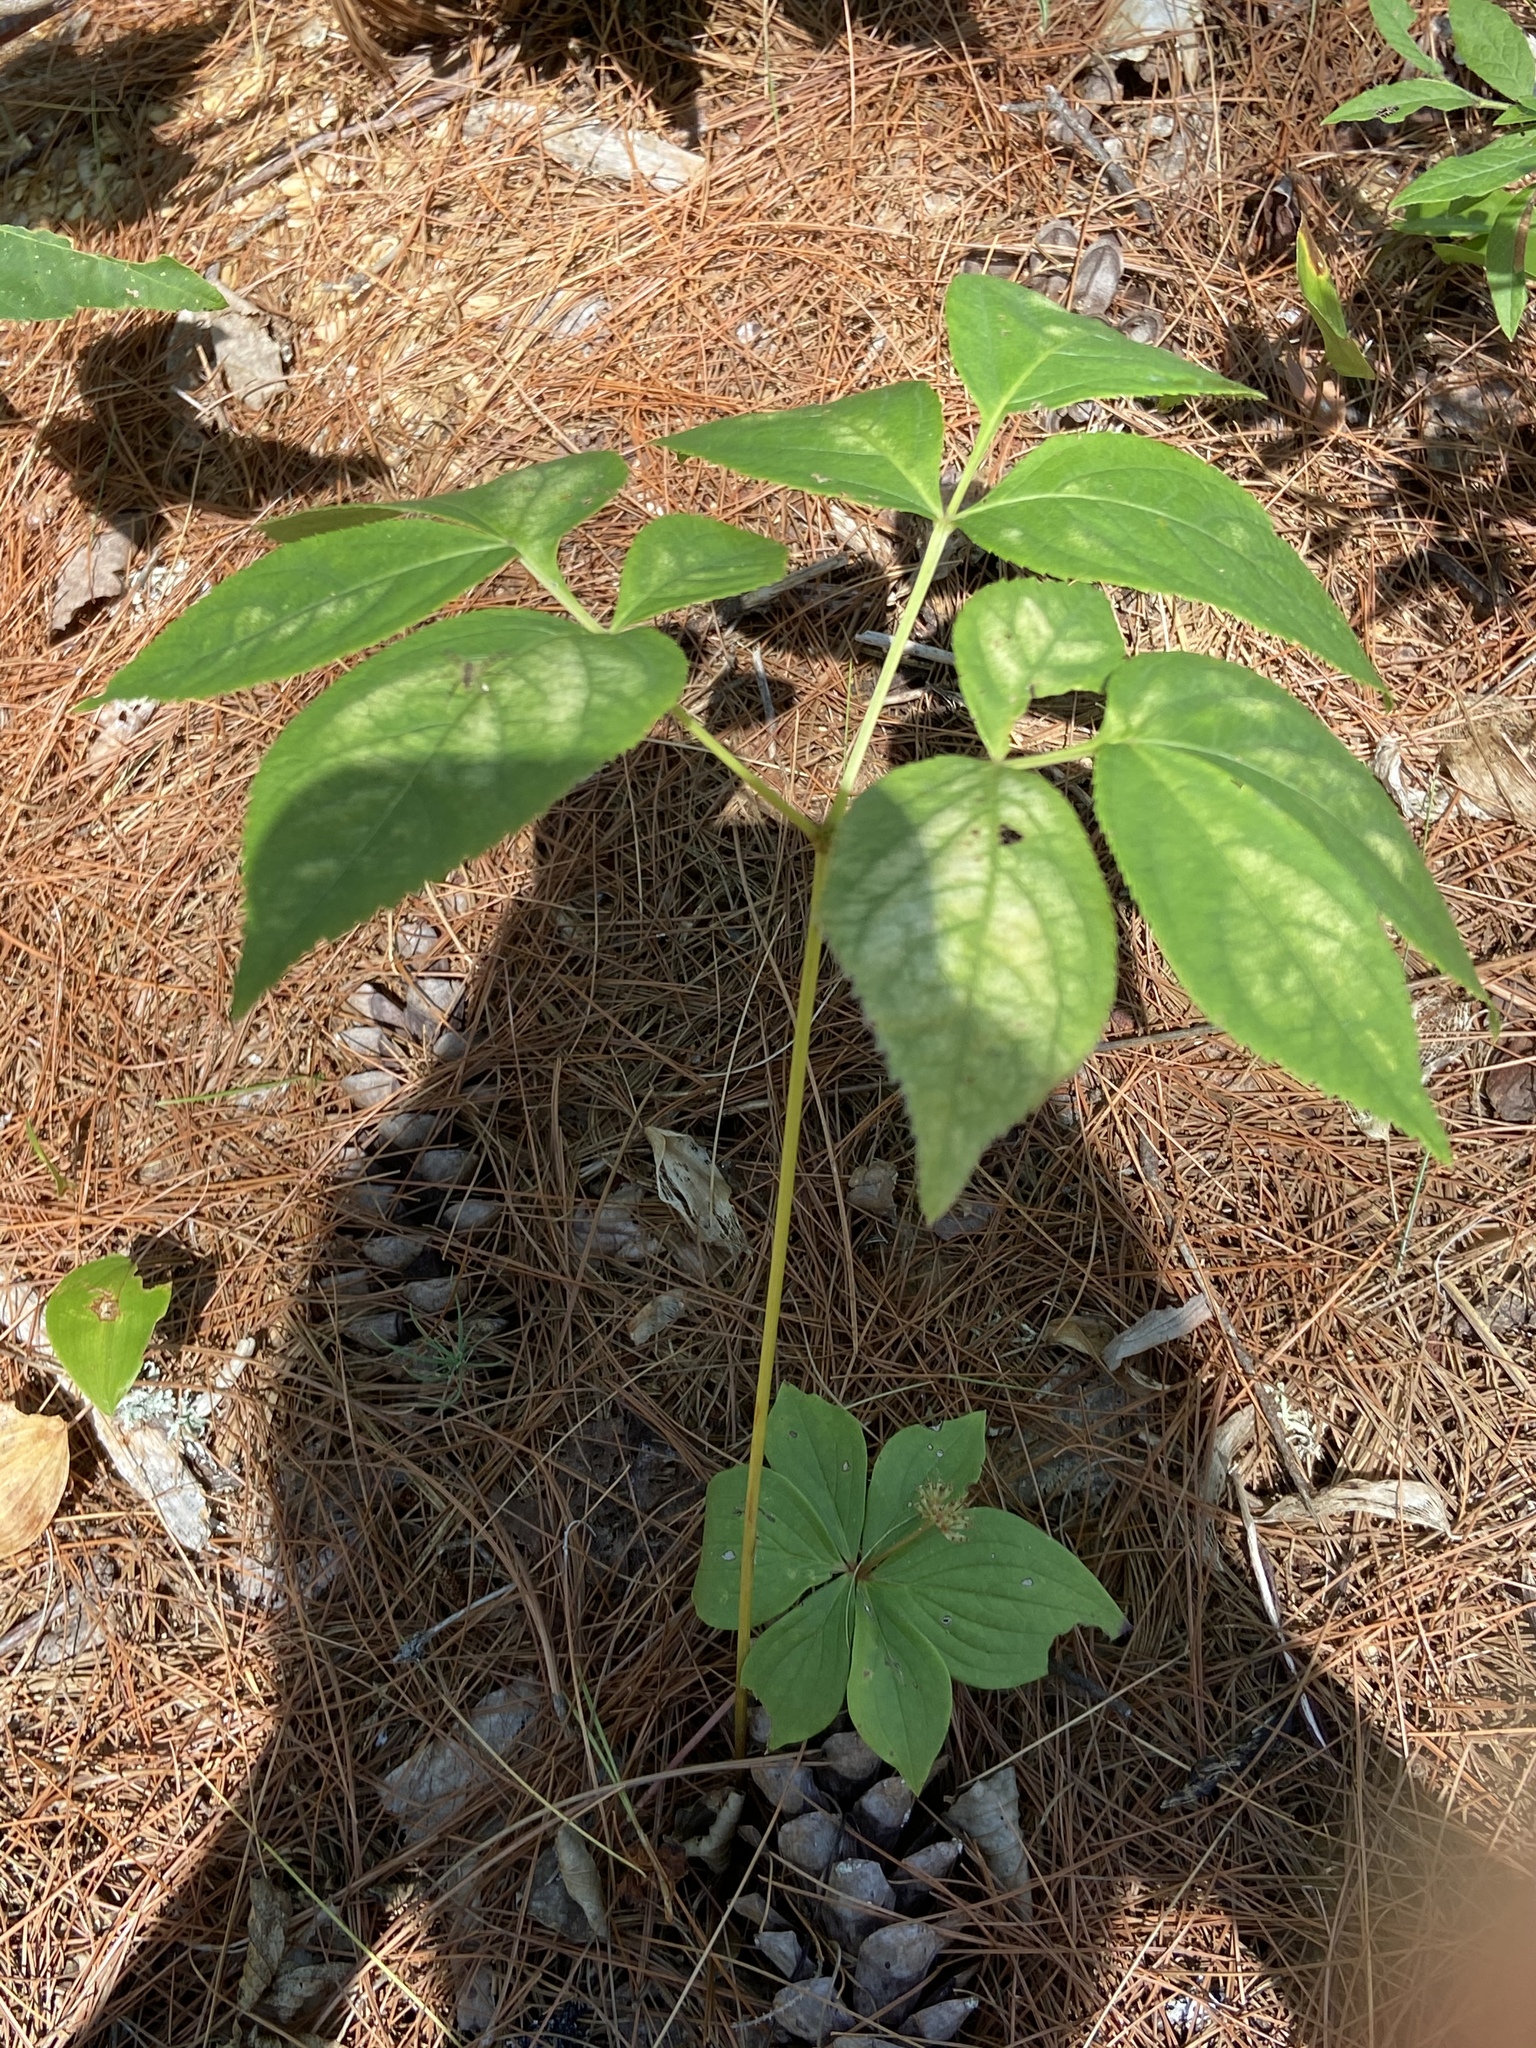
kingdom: Plantae
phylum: Tracheophyta
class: Magnoliopsida
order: Apiales
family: Araliaceae
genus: Aralia
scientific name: Aralia nudicaulis
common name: Wild sarsaparilla
